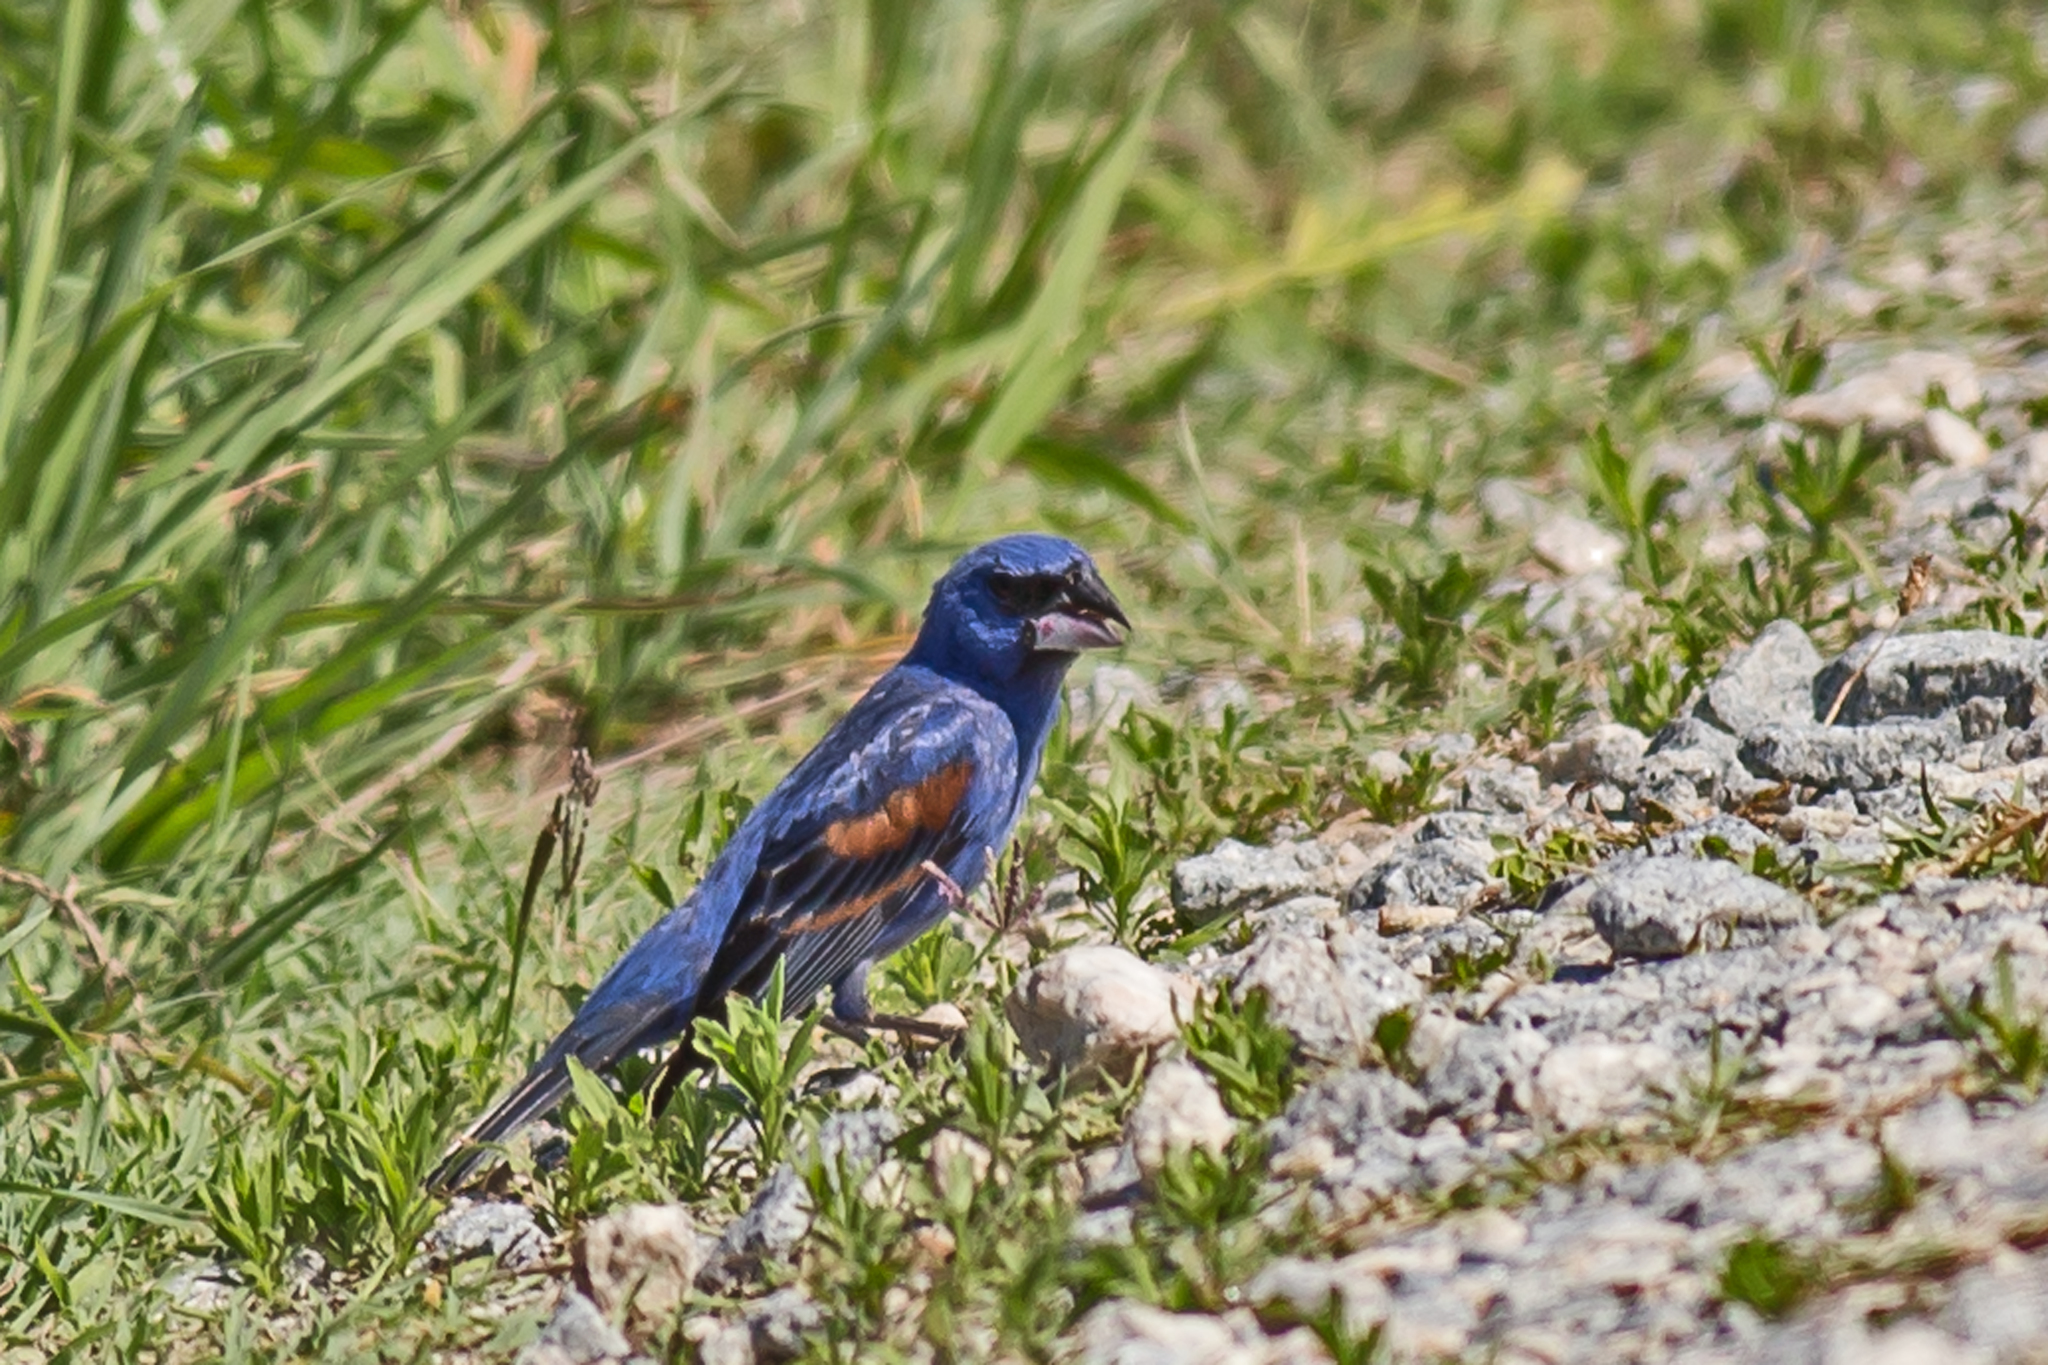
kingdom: Animalia
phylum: Chordata
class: Aves
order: Passeriformes
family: Cardinalidae
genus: Passerina
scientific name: Passerina caerulea
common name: Blue grosbeak
